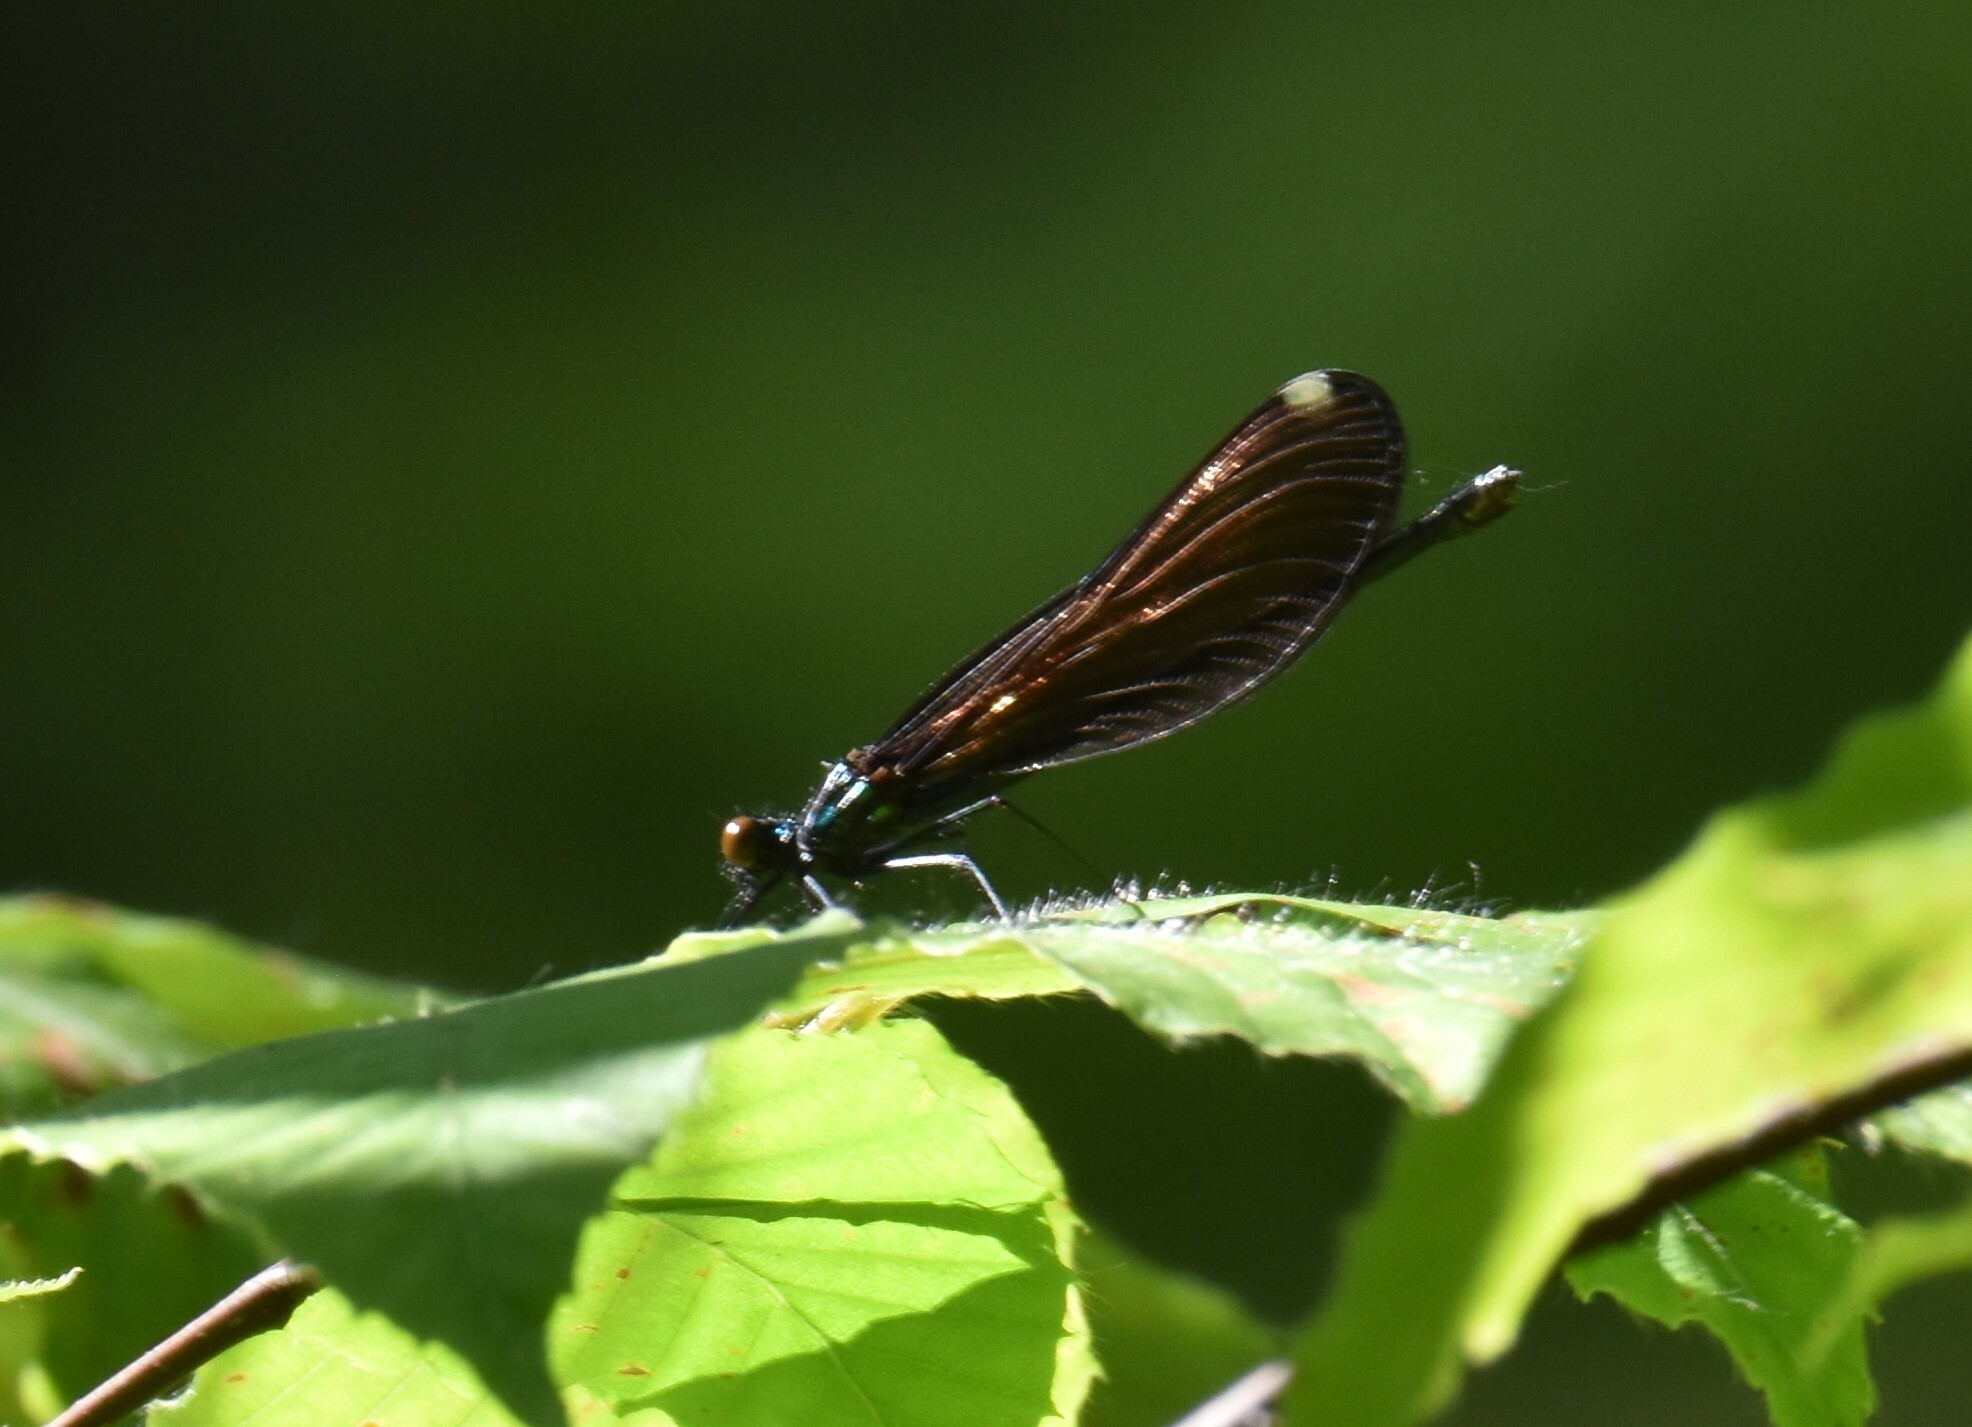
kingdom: Animalia
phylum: Arthropoda
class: Insecta
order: Odonata
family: Calopterygidae
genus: Calopteryx
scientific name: Calopteryx maculata
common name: Ebony jewelwing
